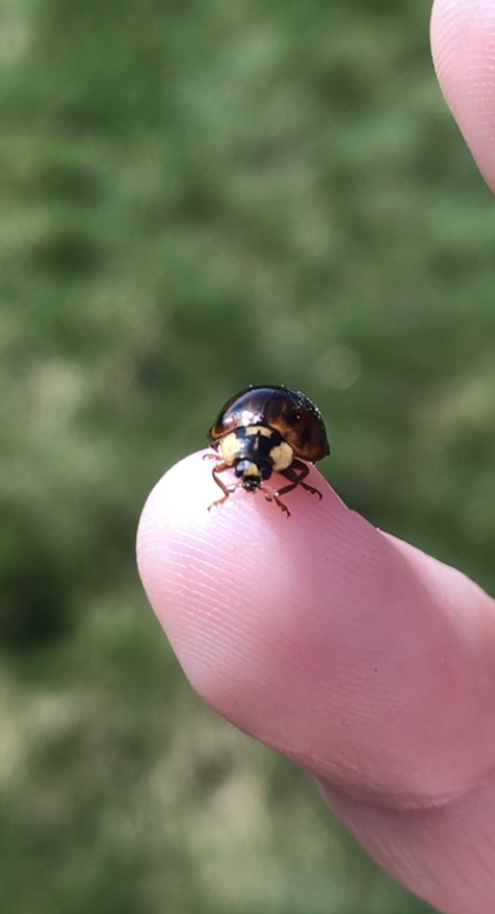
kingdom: Animalia
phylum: Arthropoda
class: Insecta
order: Coleoptera
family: Coccinellidae
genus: Harmonia
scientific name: Harmonia axyridis
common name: Harlequin ladybird
